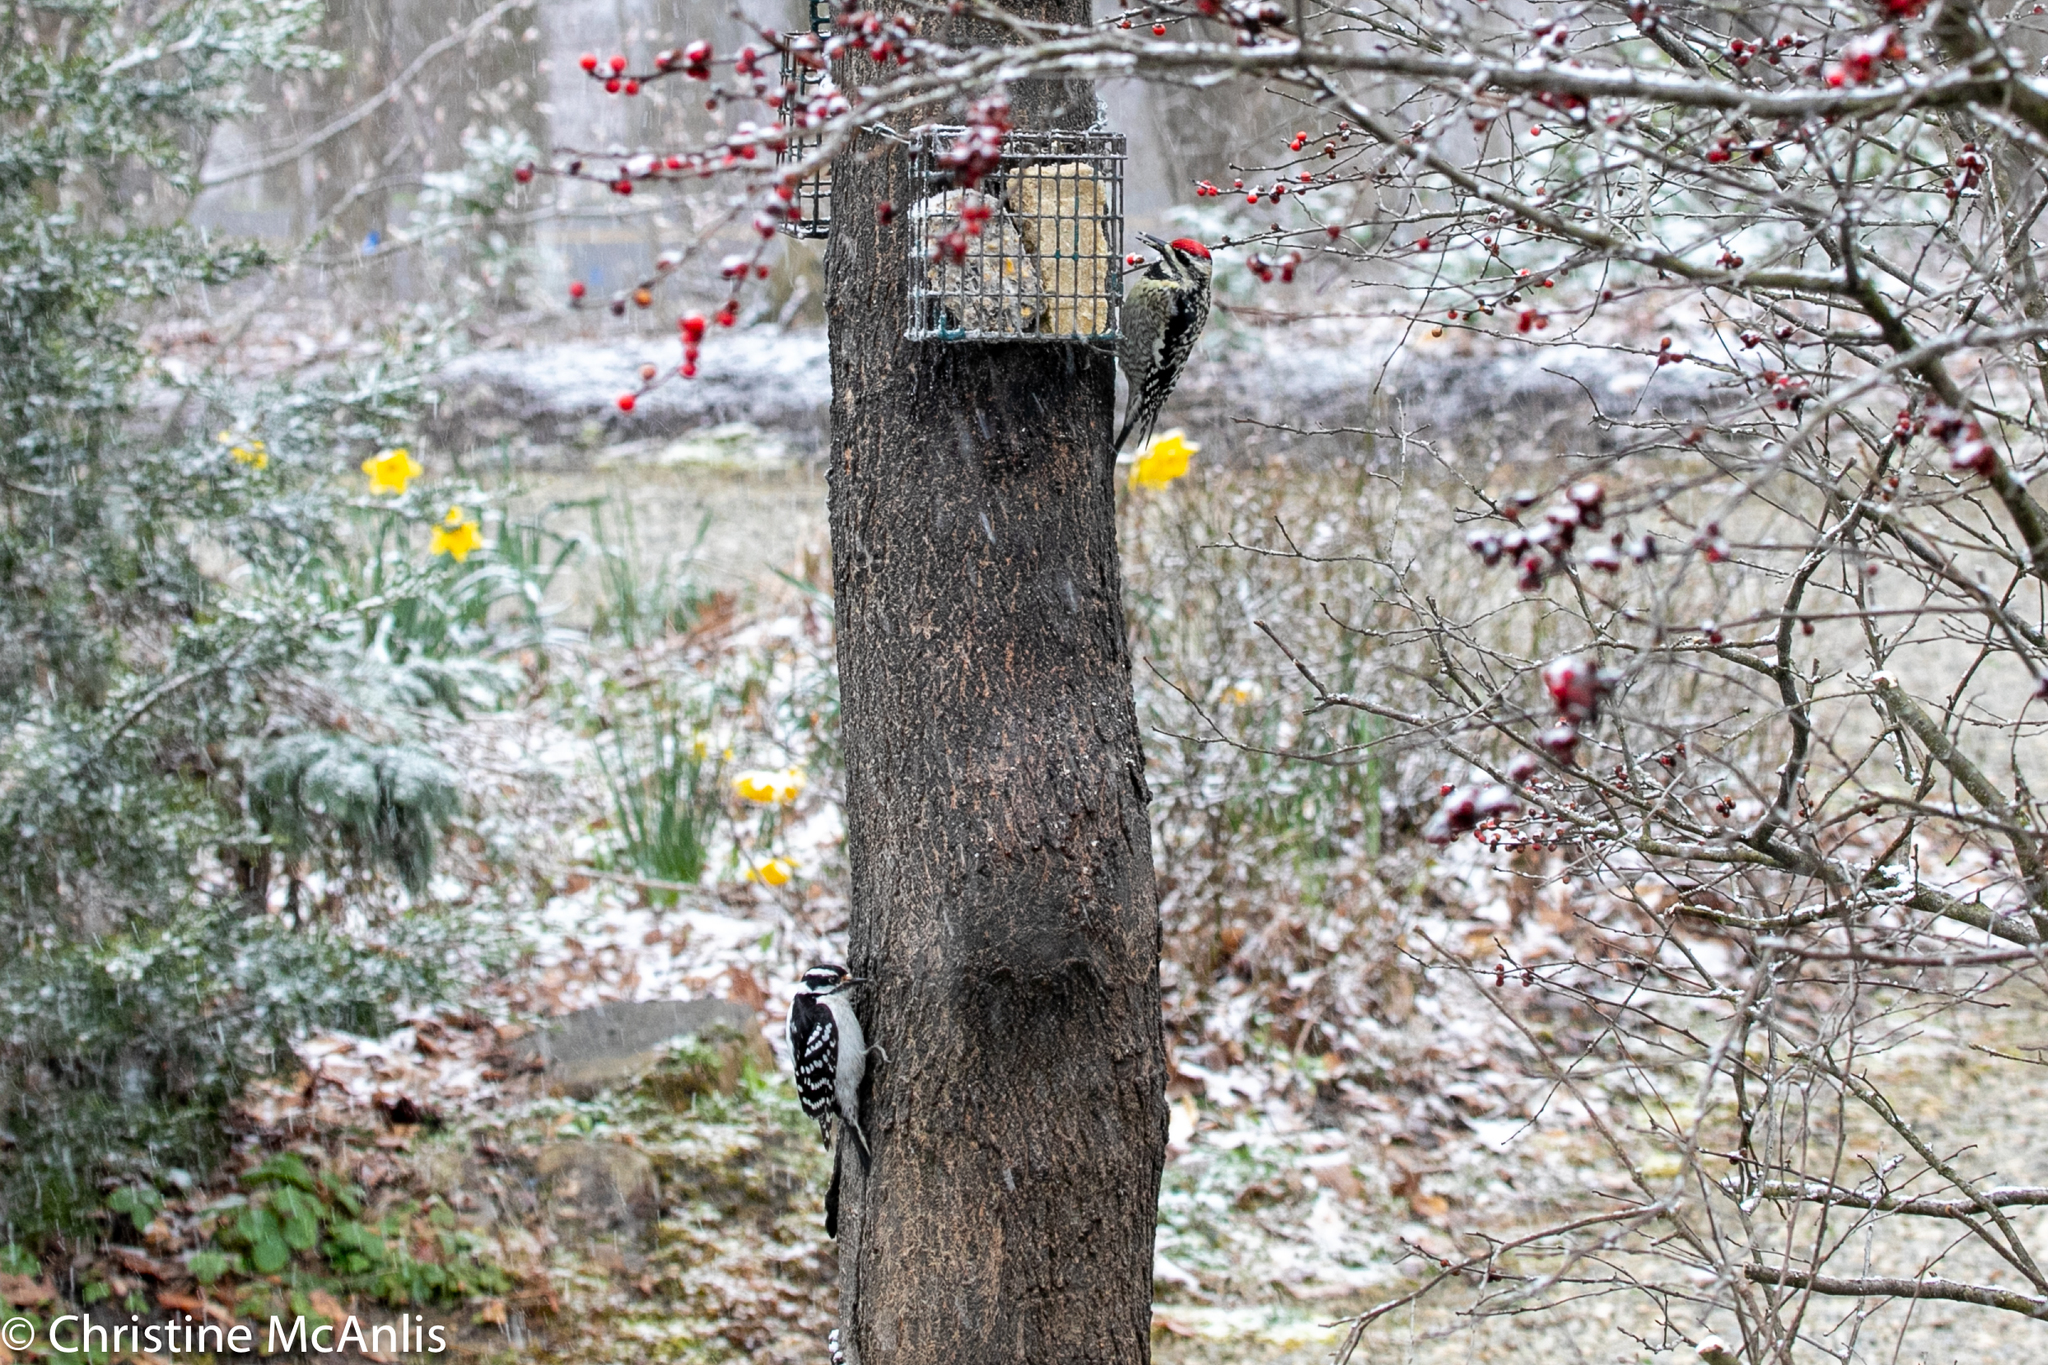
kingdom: Animalia
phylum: Chordata
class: Aves
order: Piciformes
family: Picidae
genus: Sphyrapicus
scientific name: Sphyrapicus varius
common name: Yellow-bellied sapsucker
